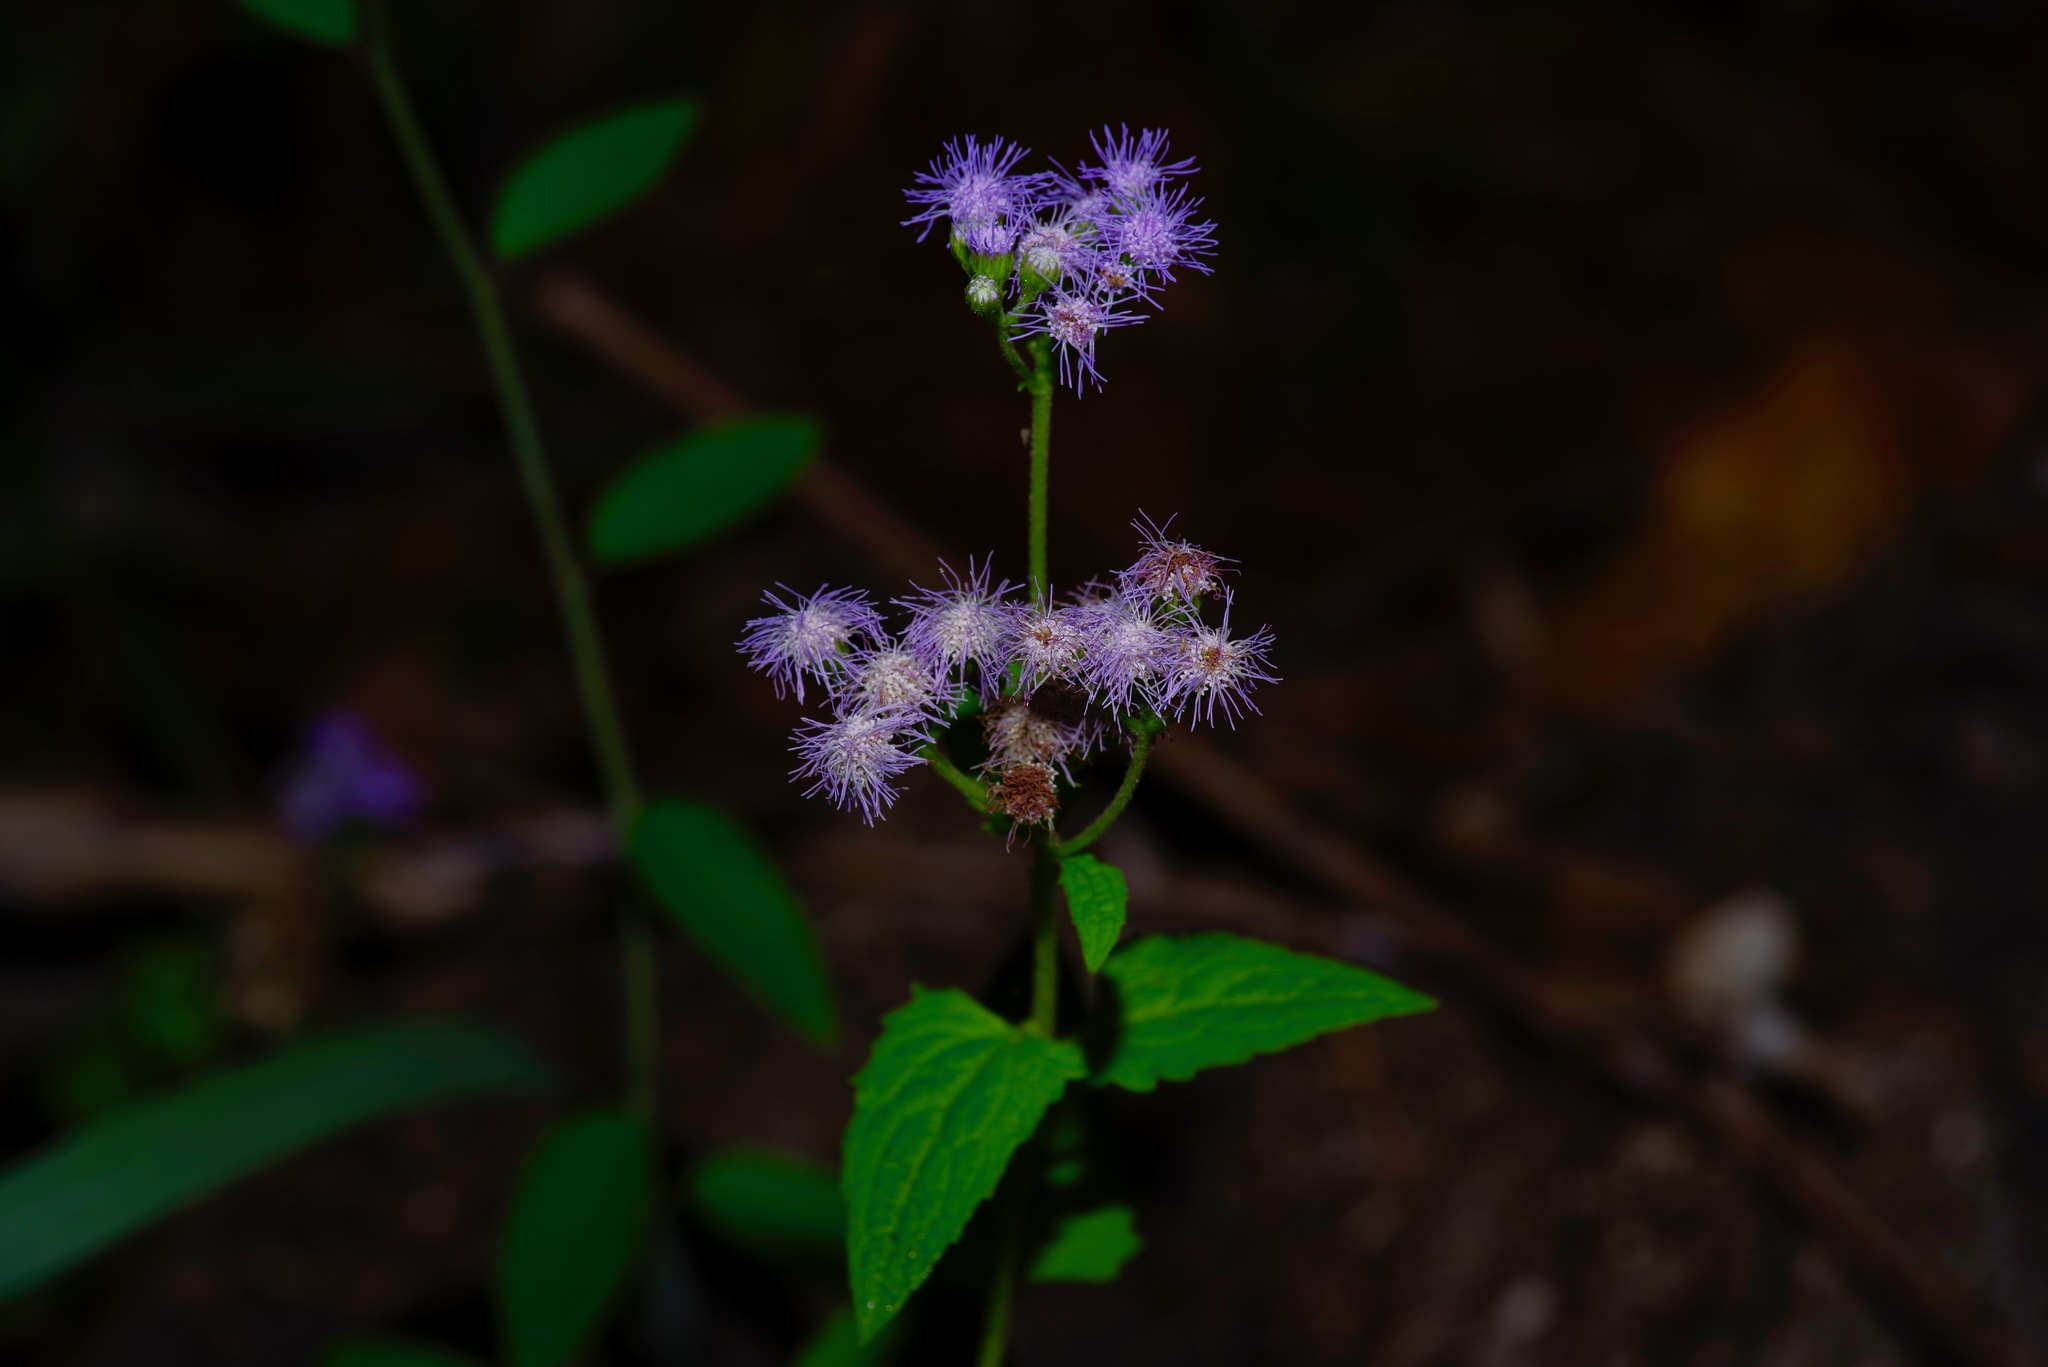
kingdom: Plantae
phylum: Tracheophyta
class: Magnoliopsida
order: Asterales
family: Asteraceae
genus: Conoclinium
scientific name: Conoclinium coelestinum
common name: Blue mistflower
